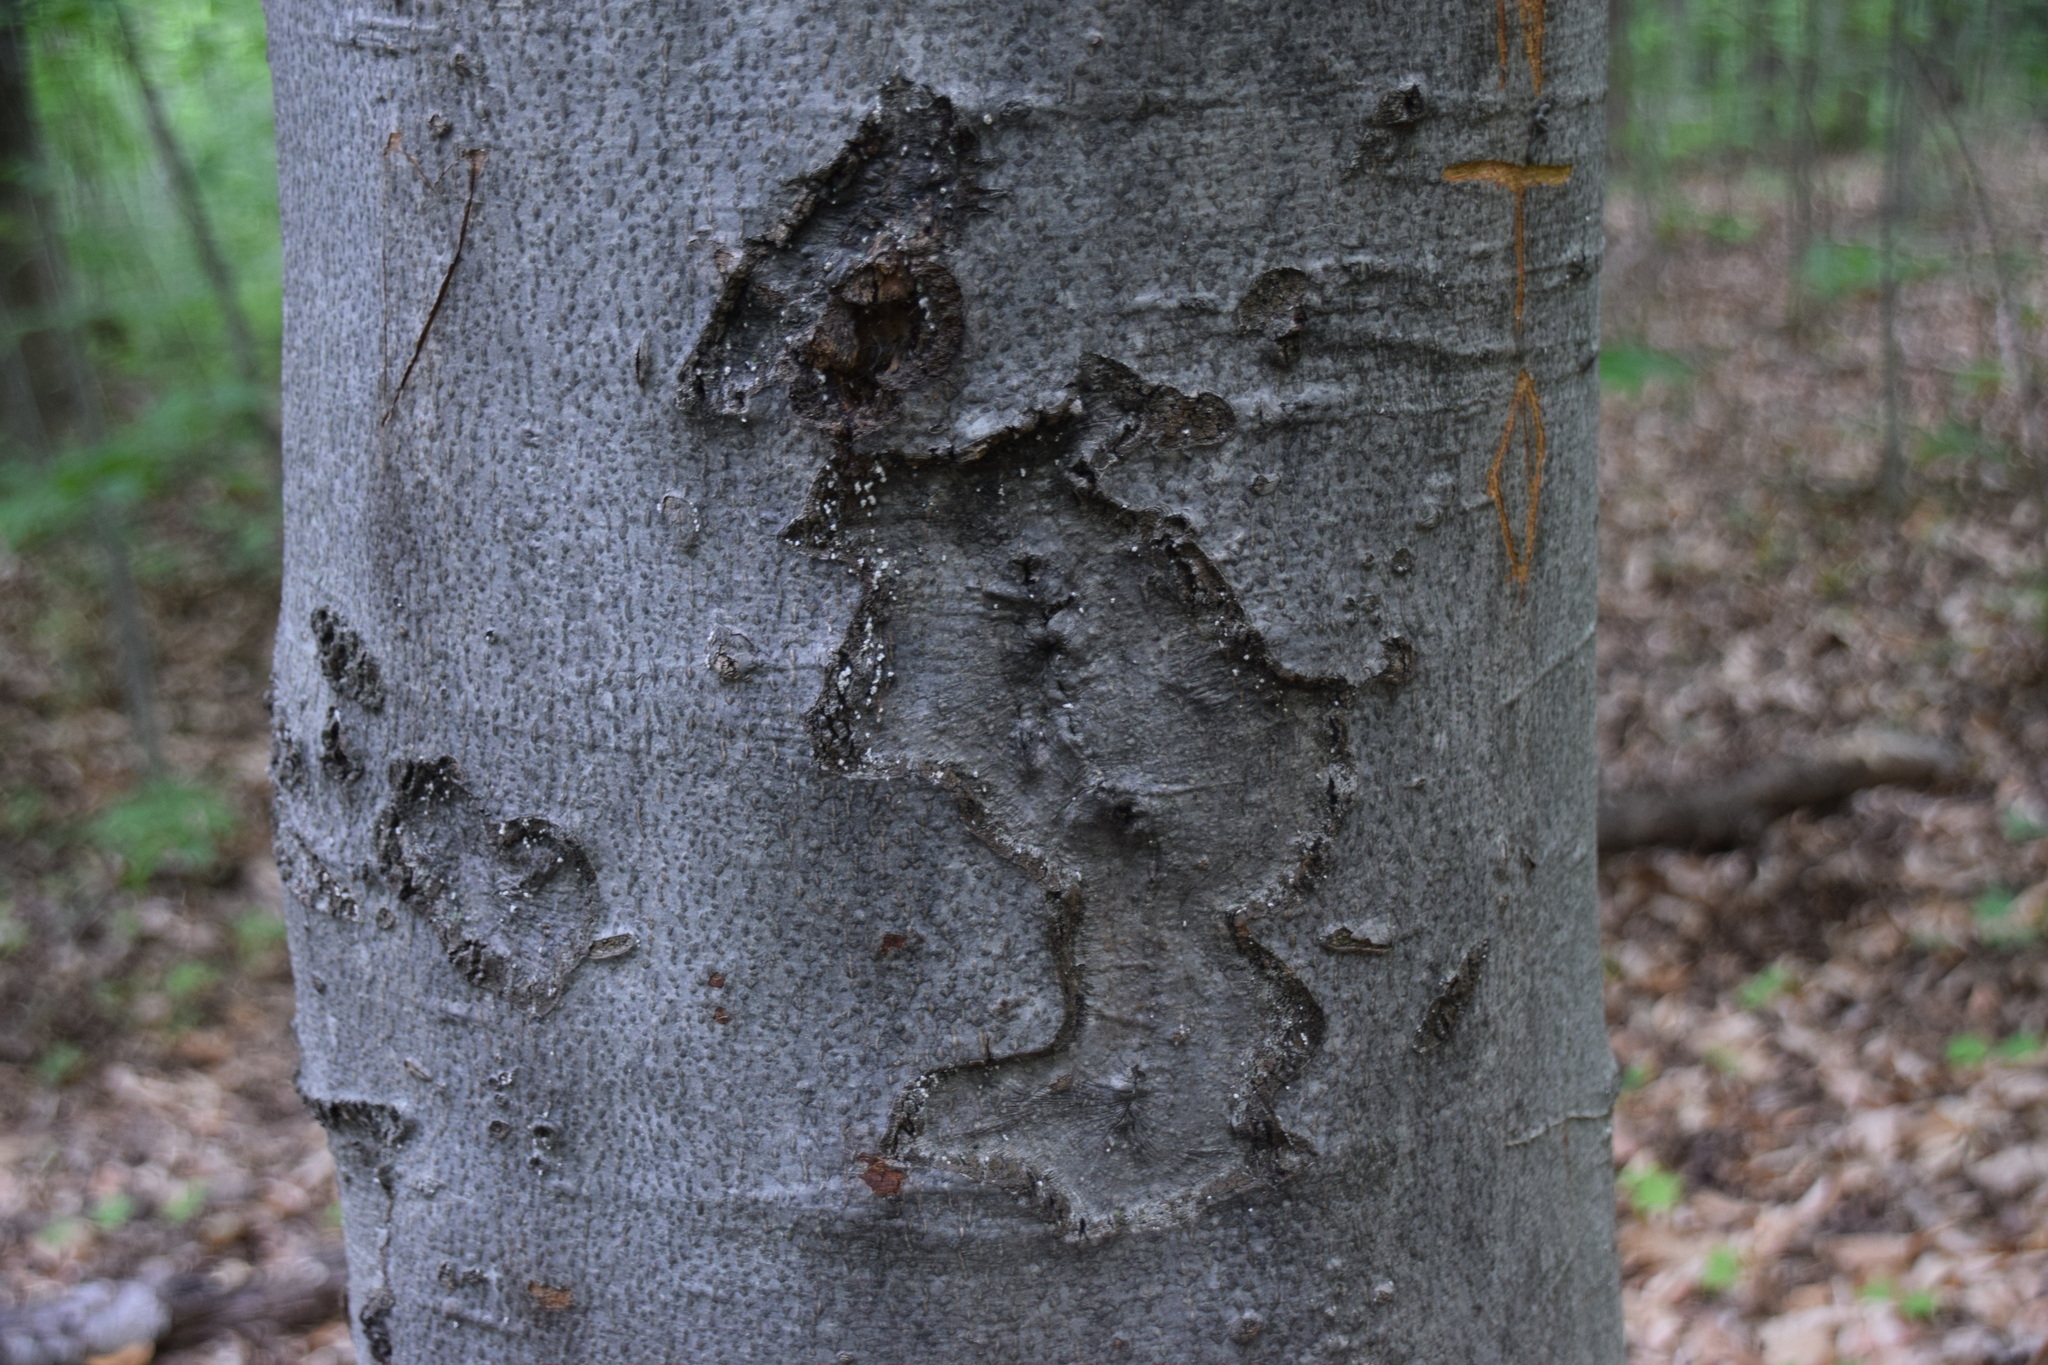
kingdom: Plantae
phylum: Tracheophyta
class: Magnoliopsida
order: Fagales
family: Fagaceae
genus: Fagus
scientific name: Fagus grandifolia
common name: American beech
